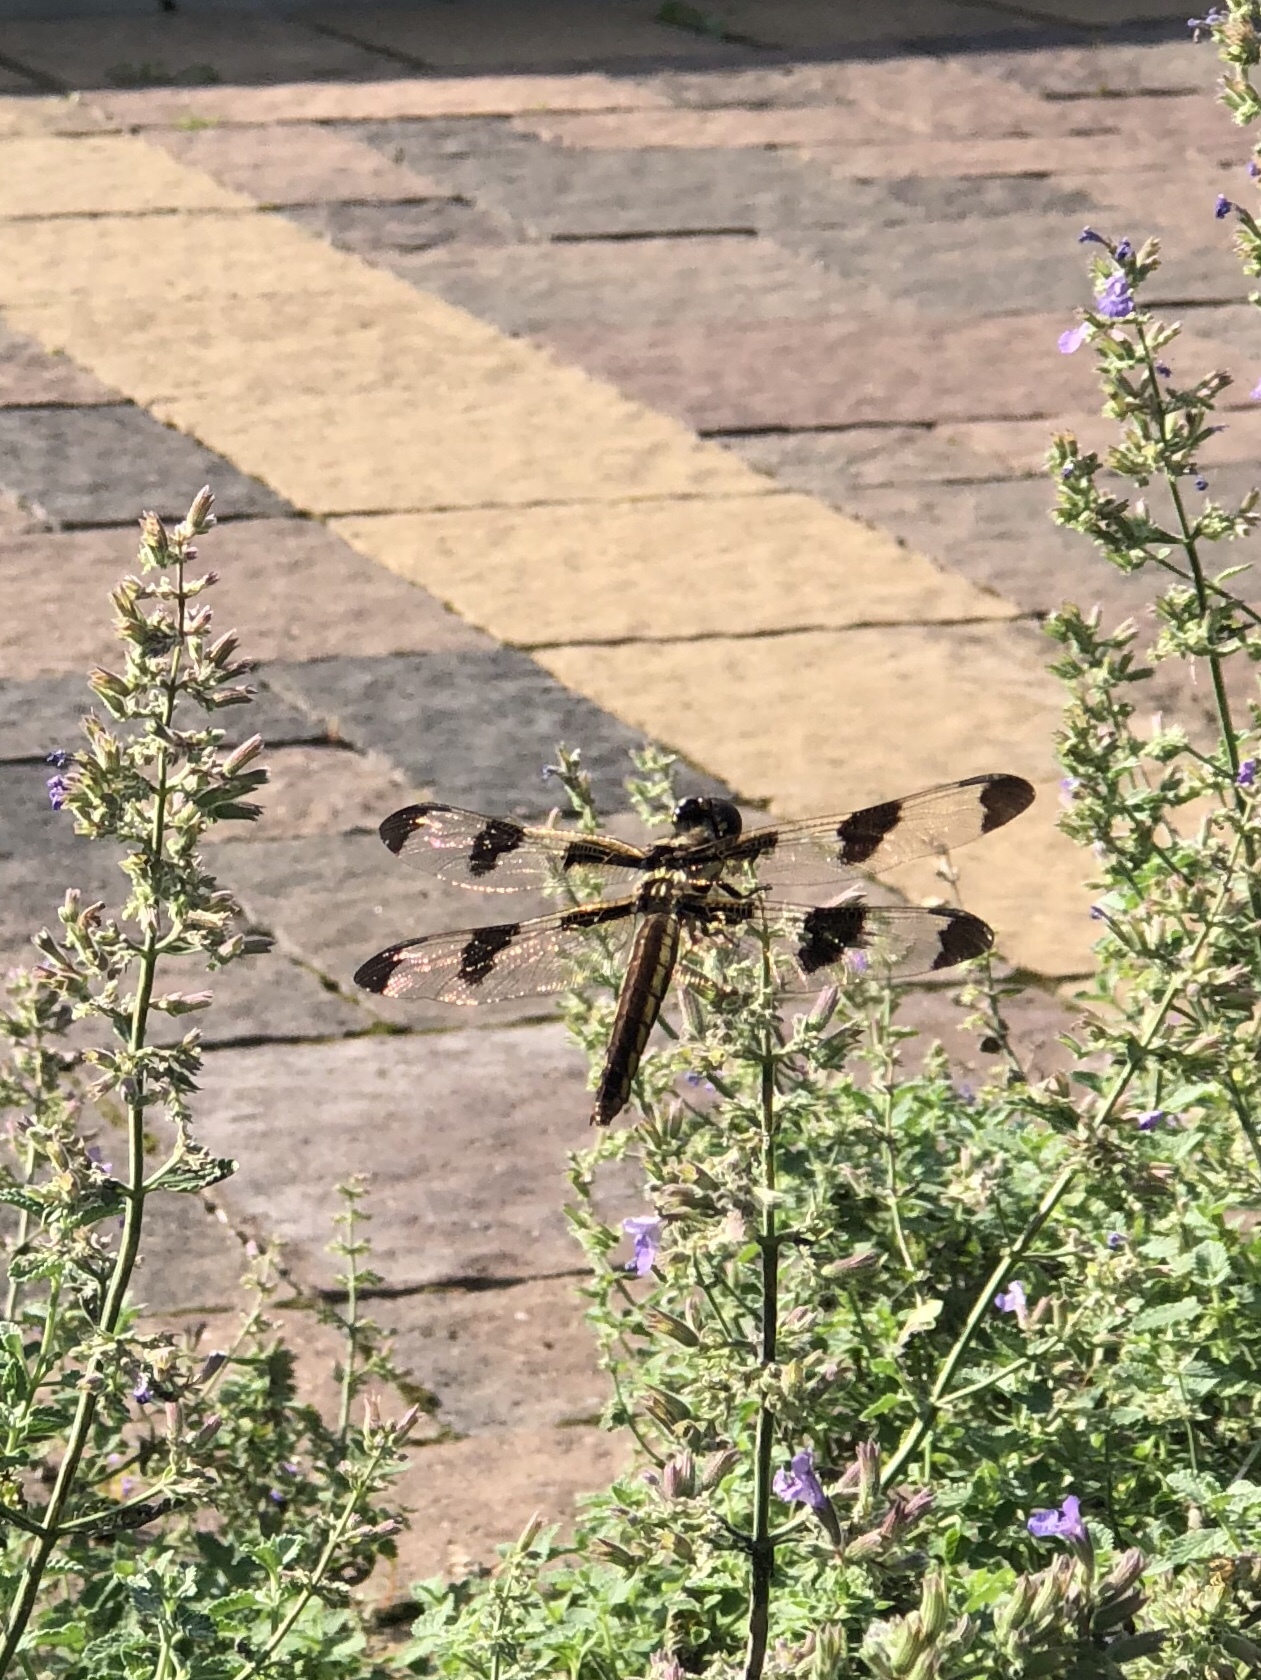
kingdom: Animalia
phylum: Arthropoda
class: Insecta
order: Odonata
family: Libellulidae
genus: Libellula
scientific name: Libellula pulchella
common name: Twelve-spotted skimmer
